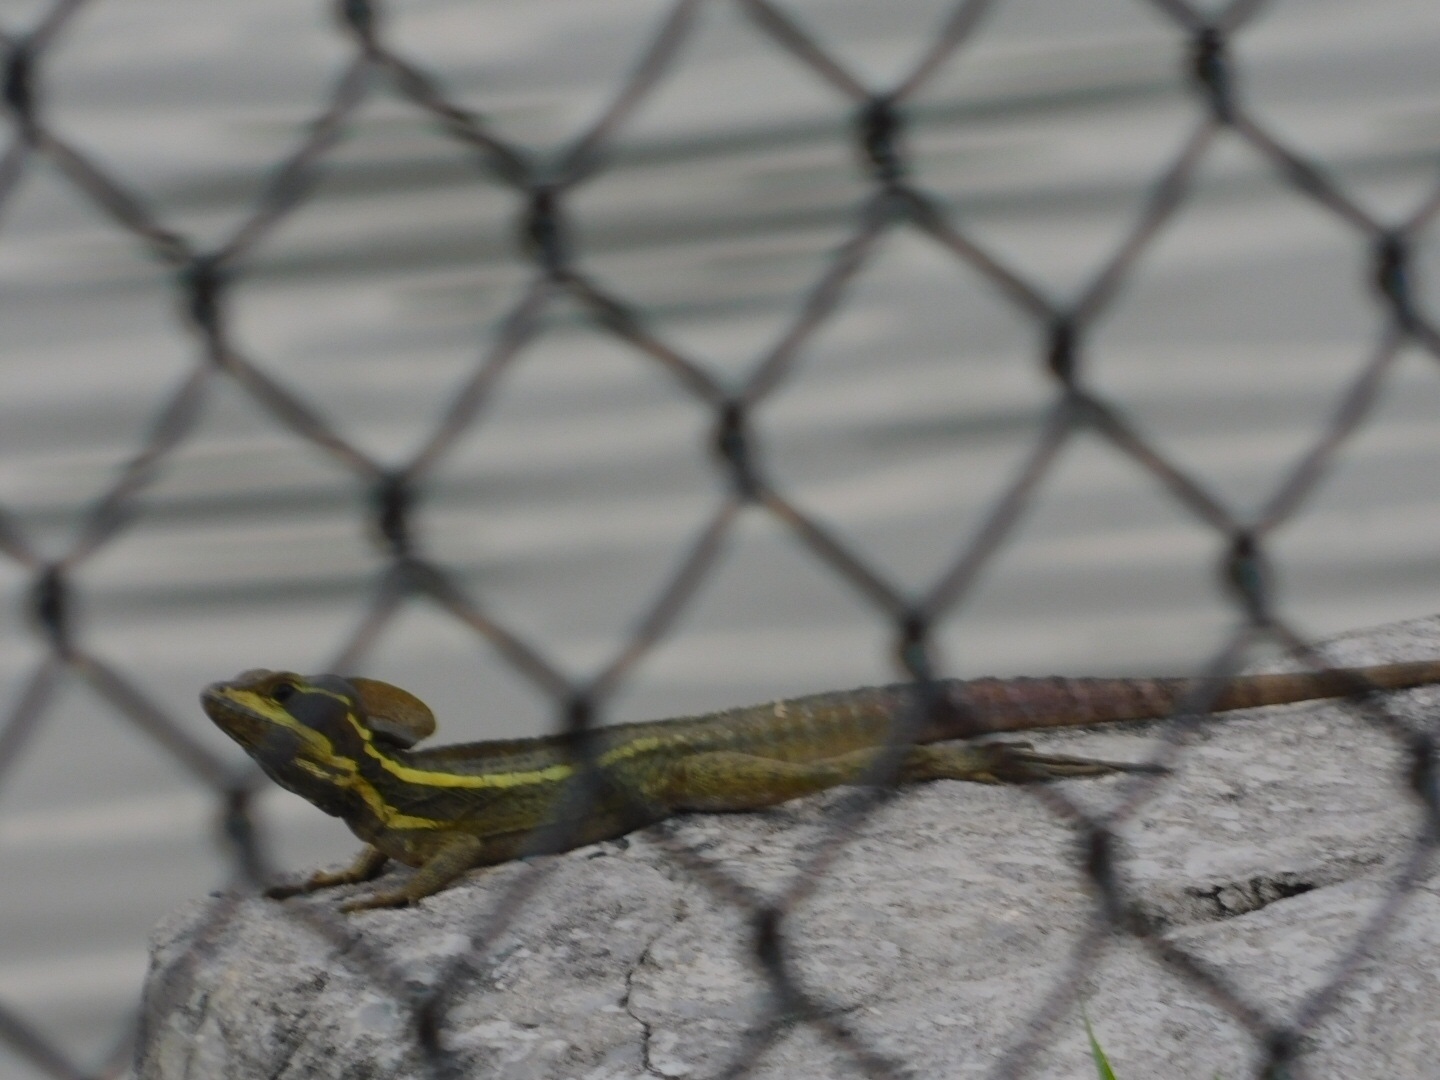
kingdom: Animalia
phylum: Chordata
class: Squamata
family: Corytophanidae
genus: Basiliscus
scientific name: Basiliscus vittatus
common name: Brown basilisk
